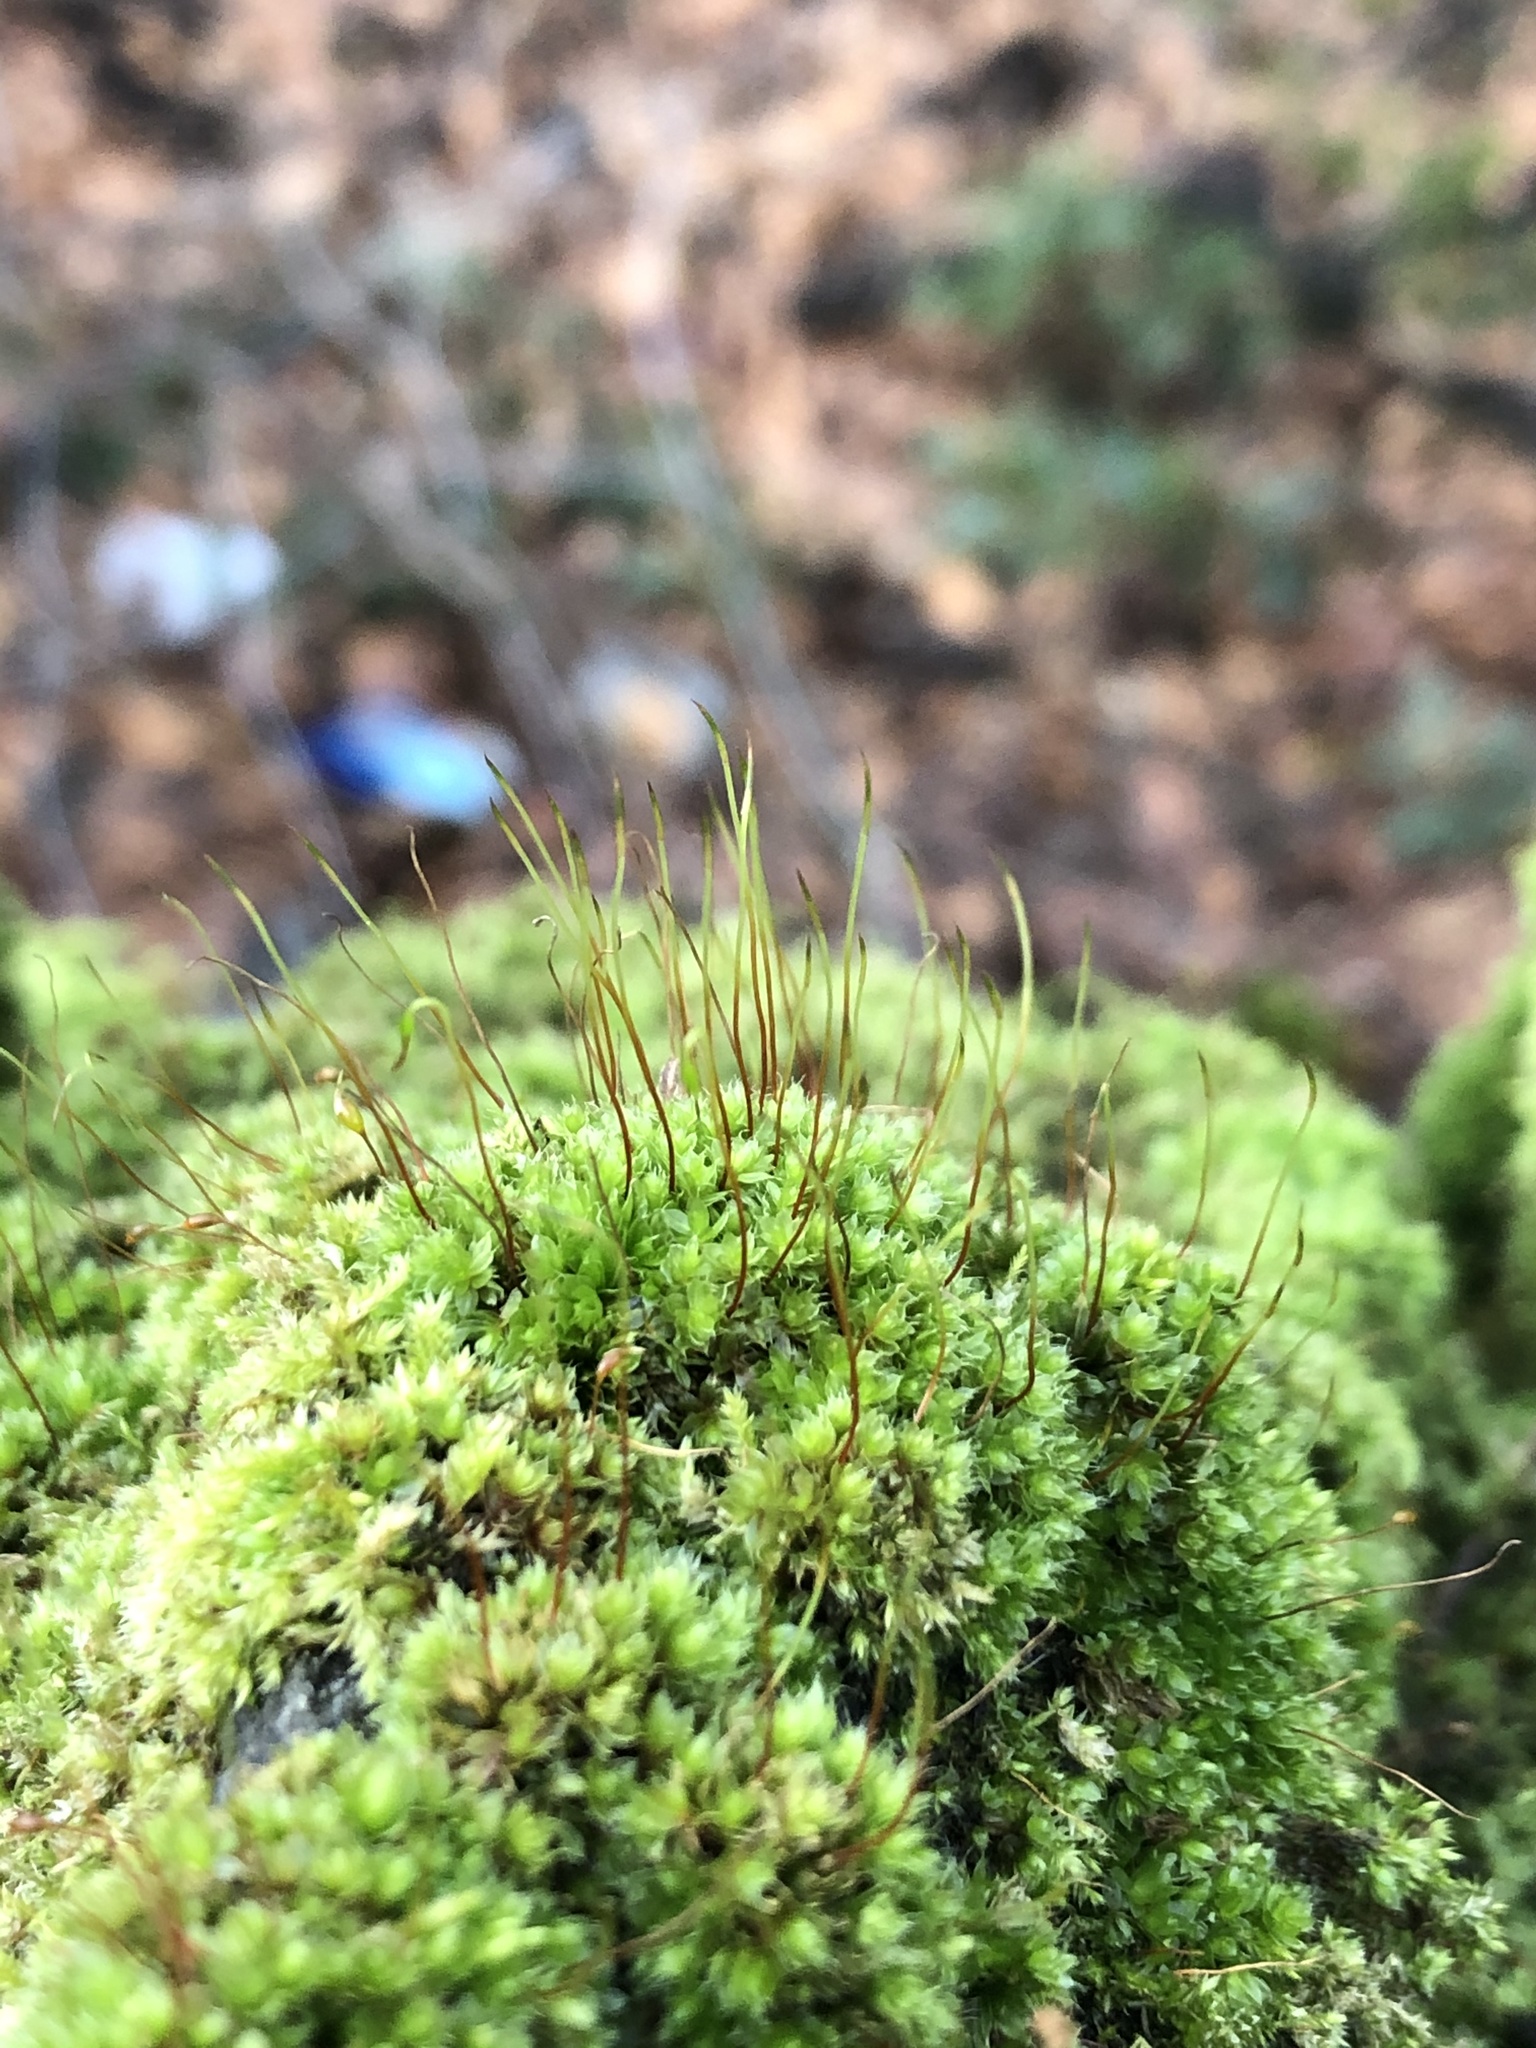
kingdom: Plantae
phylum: Bryophyta
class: Bryopsida
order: Bryales
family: Bryaceae
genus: Rosulabryum
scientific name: Rosulabryum capillare
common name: Capillary thread-moss
